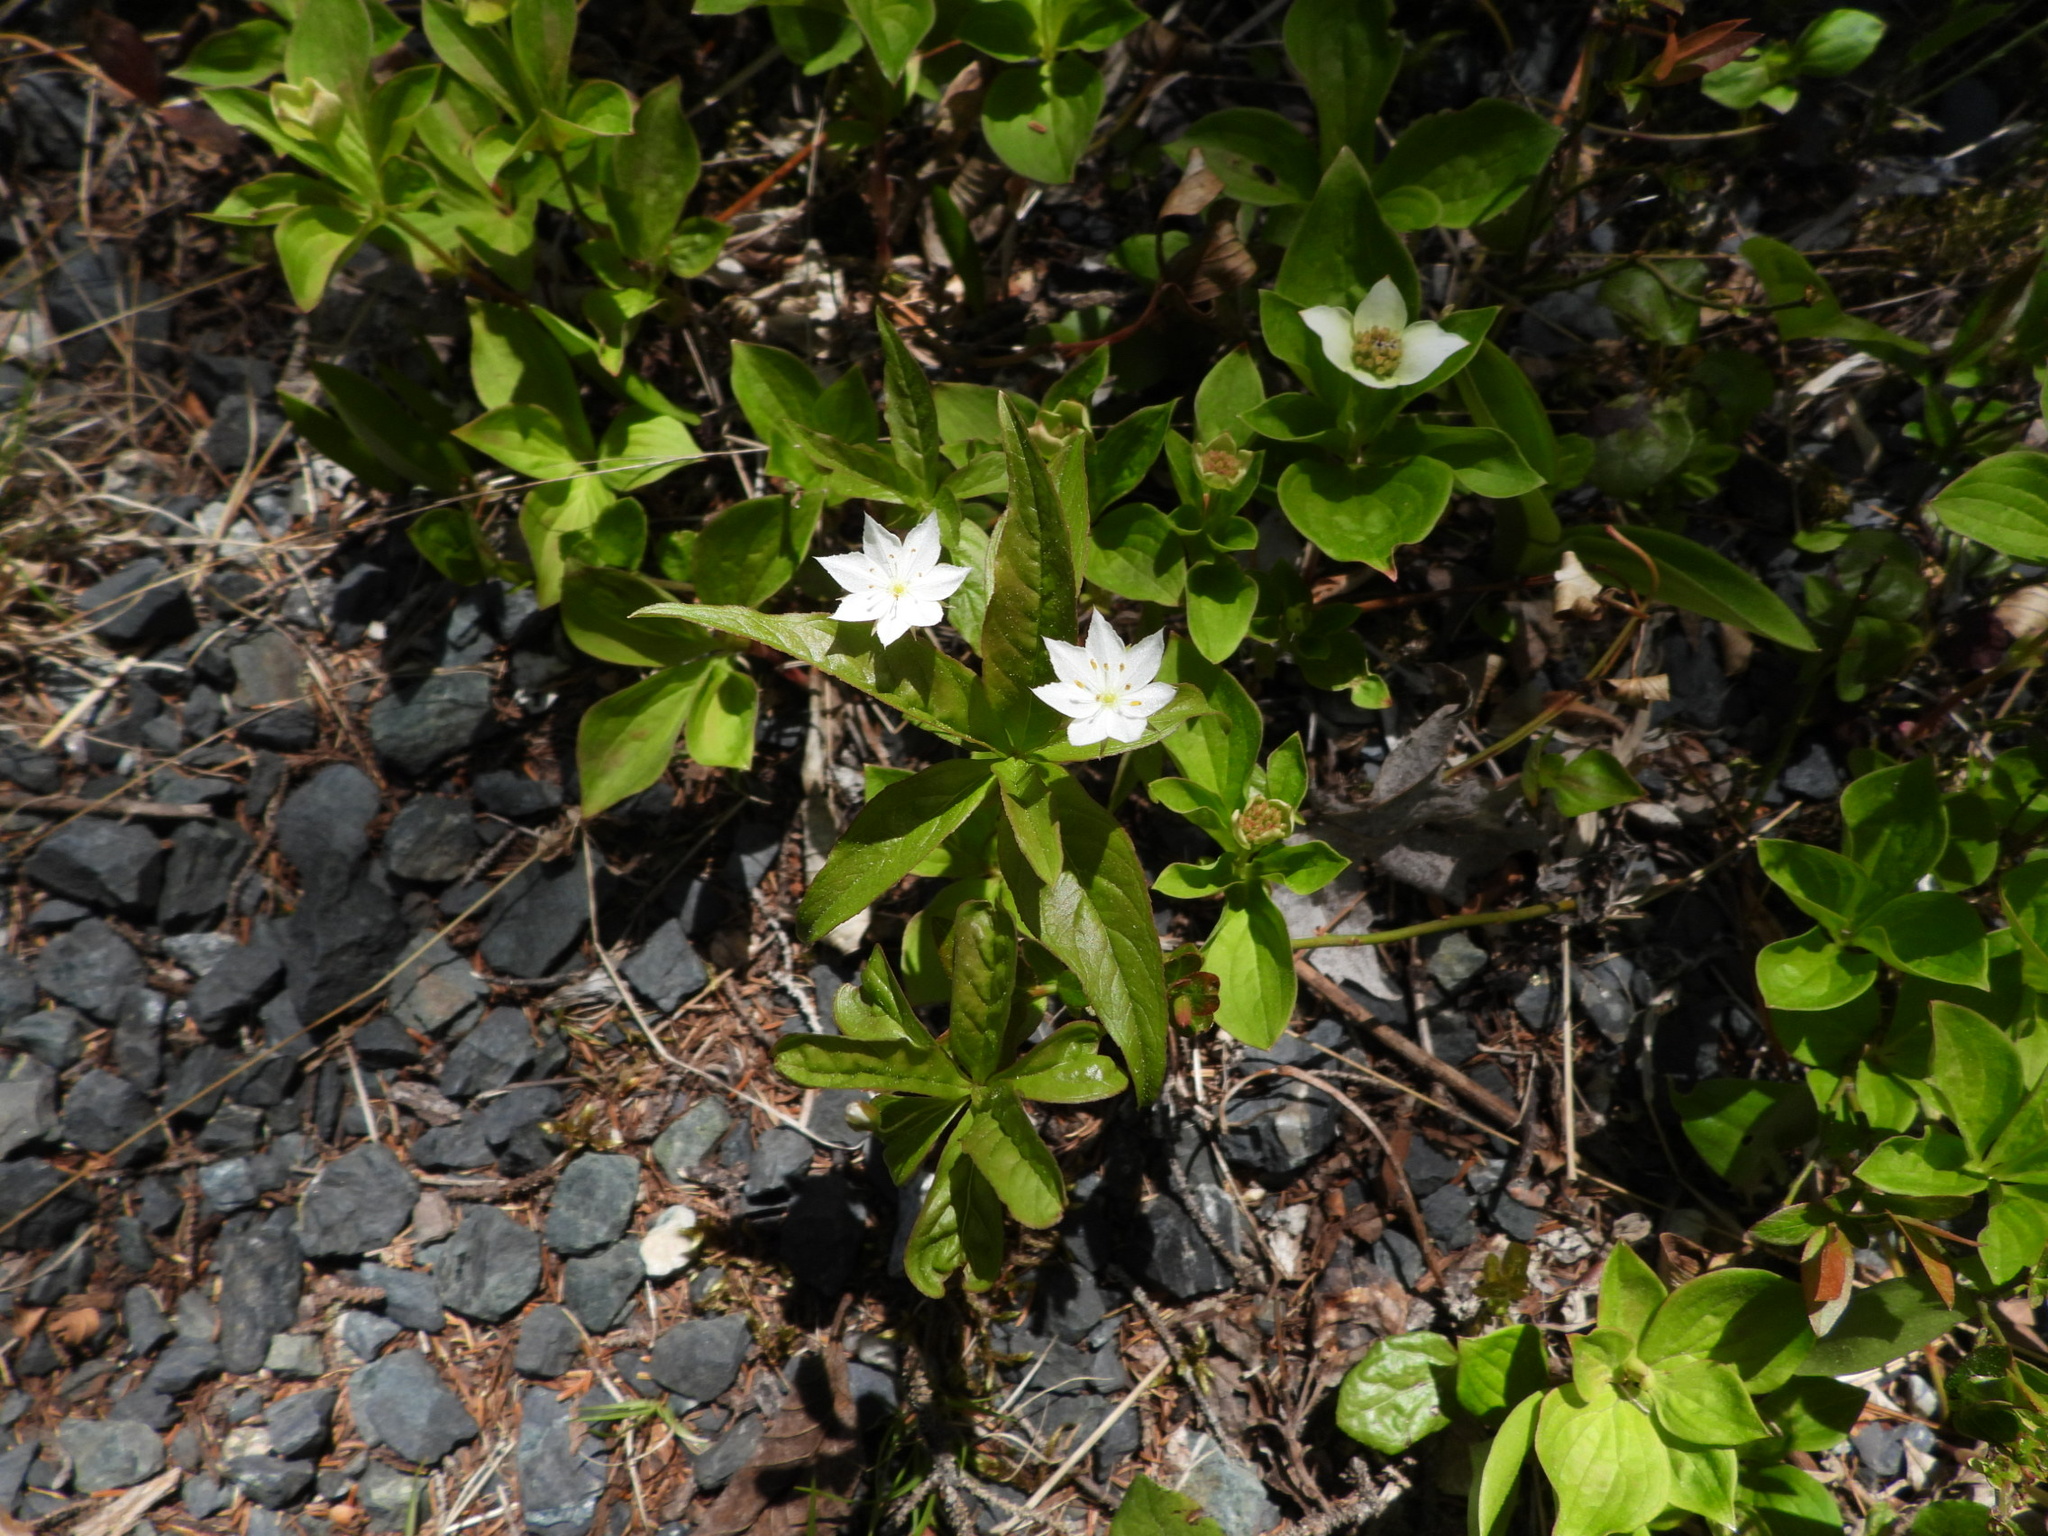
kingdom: Plantae
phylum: Tracheophyta
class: Magnoliopsida
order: Ericales
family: Primulaceae
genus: Lysimachia
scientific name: Lysimachia borealis
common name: American starflower
